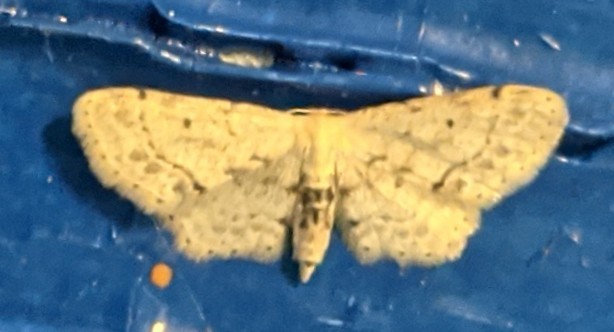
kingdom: Animalia
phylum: Arthropoda
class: Insecta
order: Lepidoptera
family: Geometridae
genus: Idaea
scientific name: Idaea dimidiata
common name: Single-dotted wave
